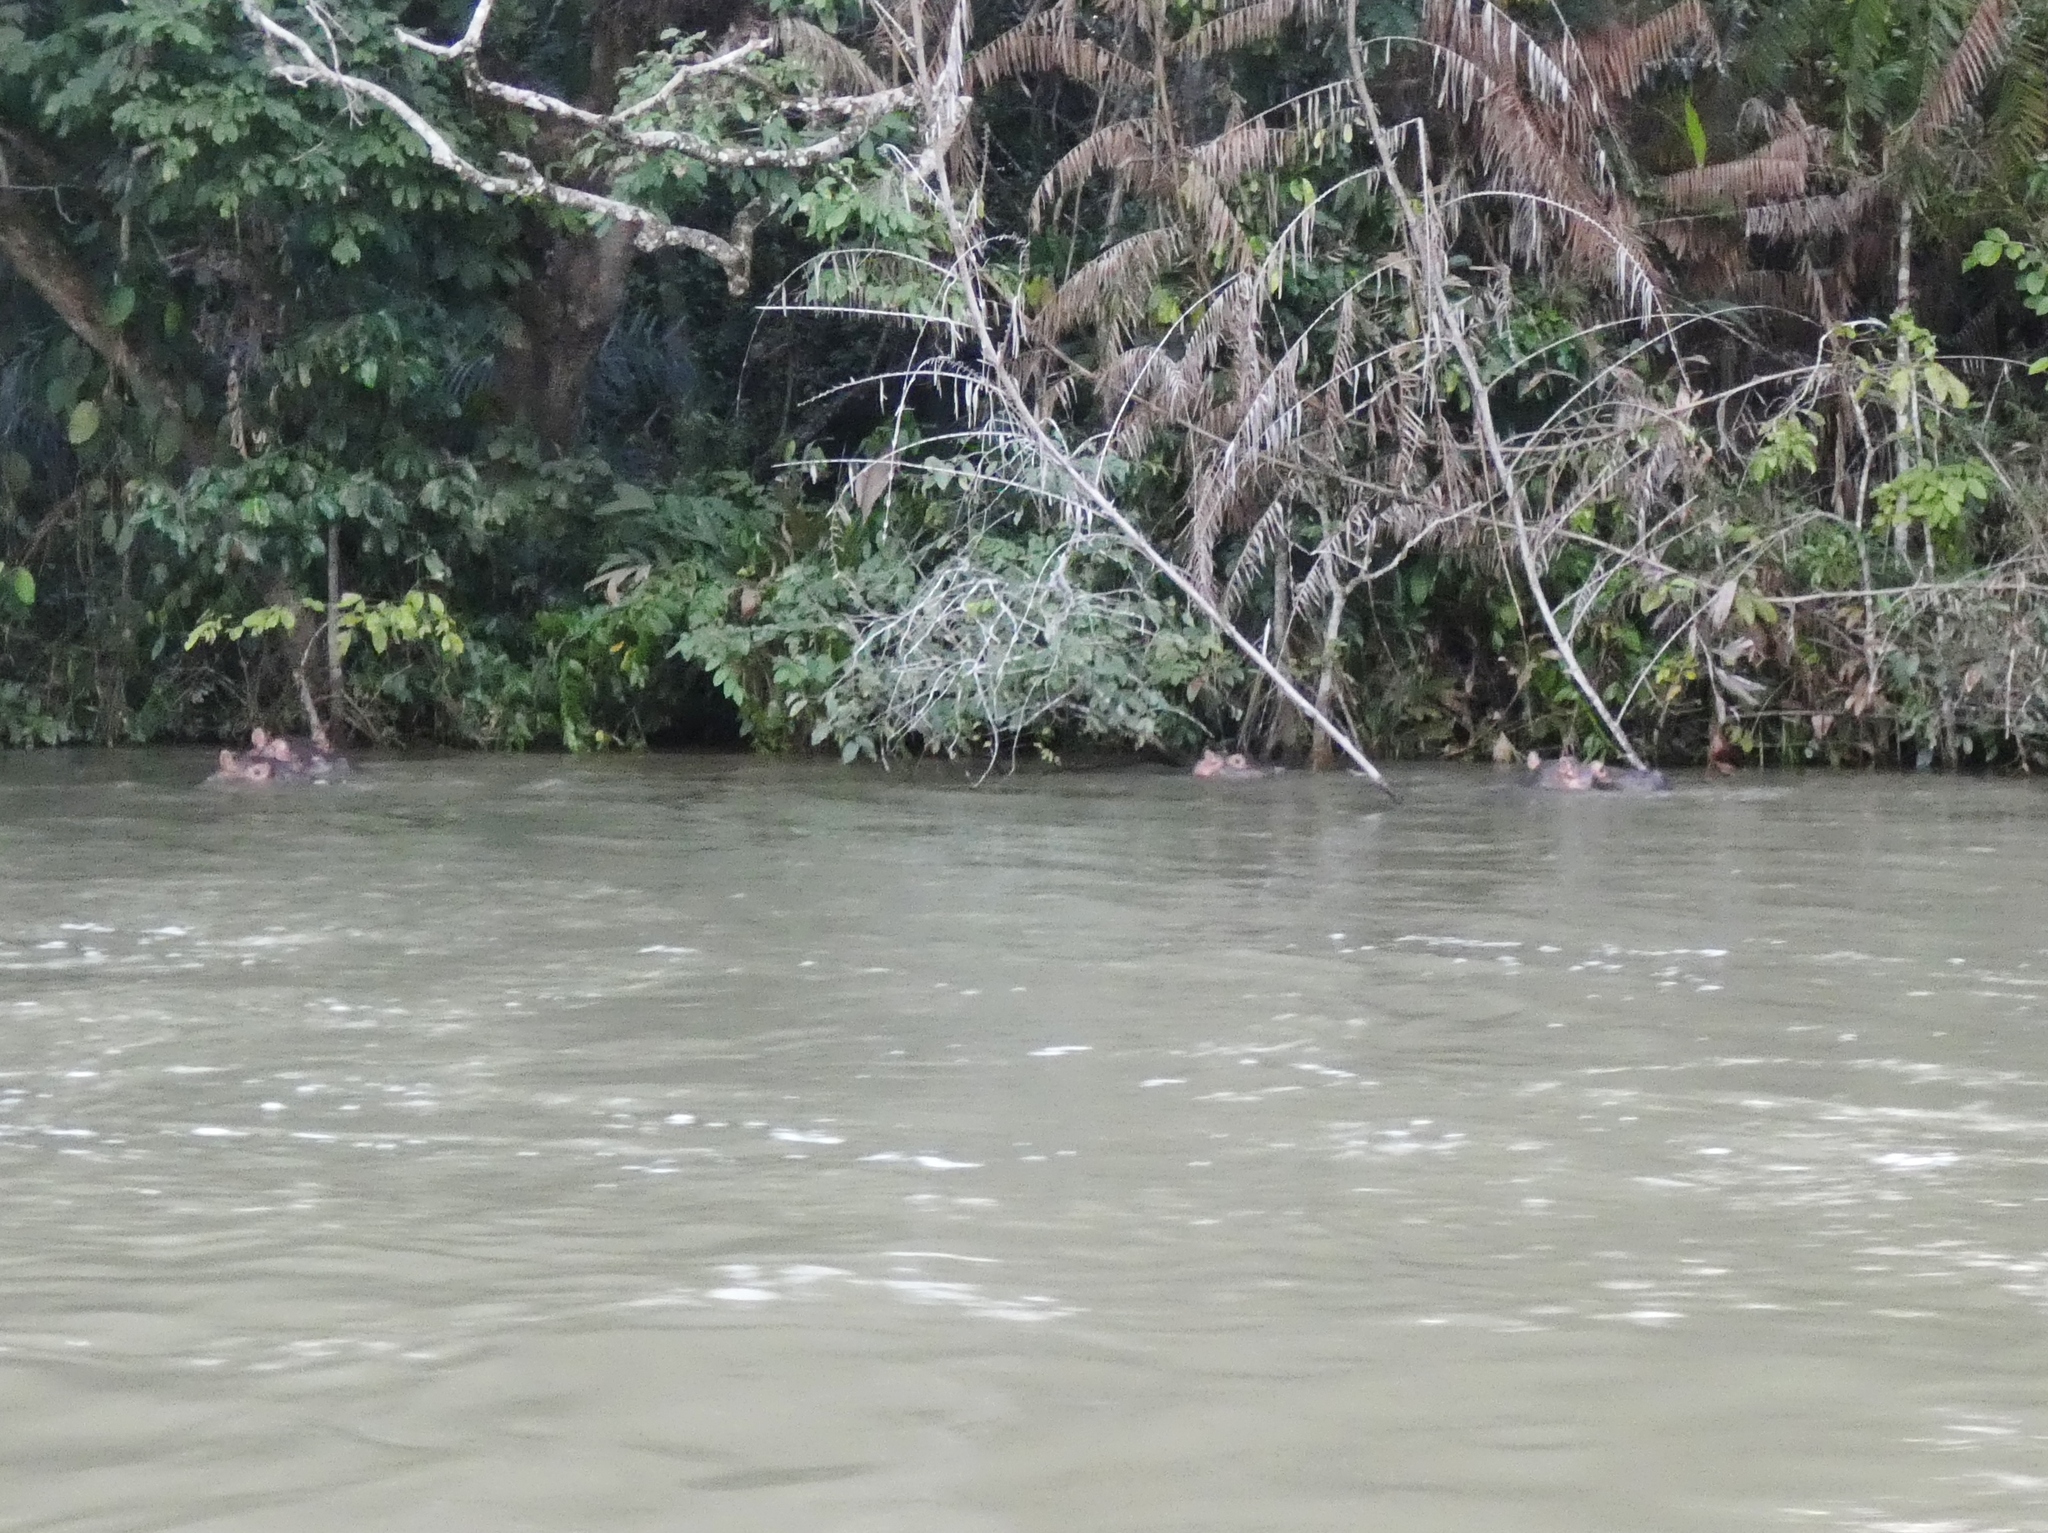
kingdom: Animalia
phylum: Chordata
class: Mammalia
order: Artiodactyla
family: Hippopotamidae
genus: Hippopotamus
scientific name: Hippopotamus amphibius
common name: Common hippopotamus
